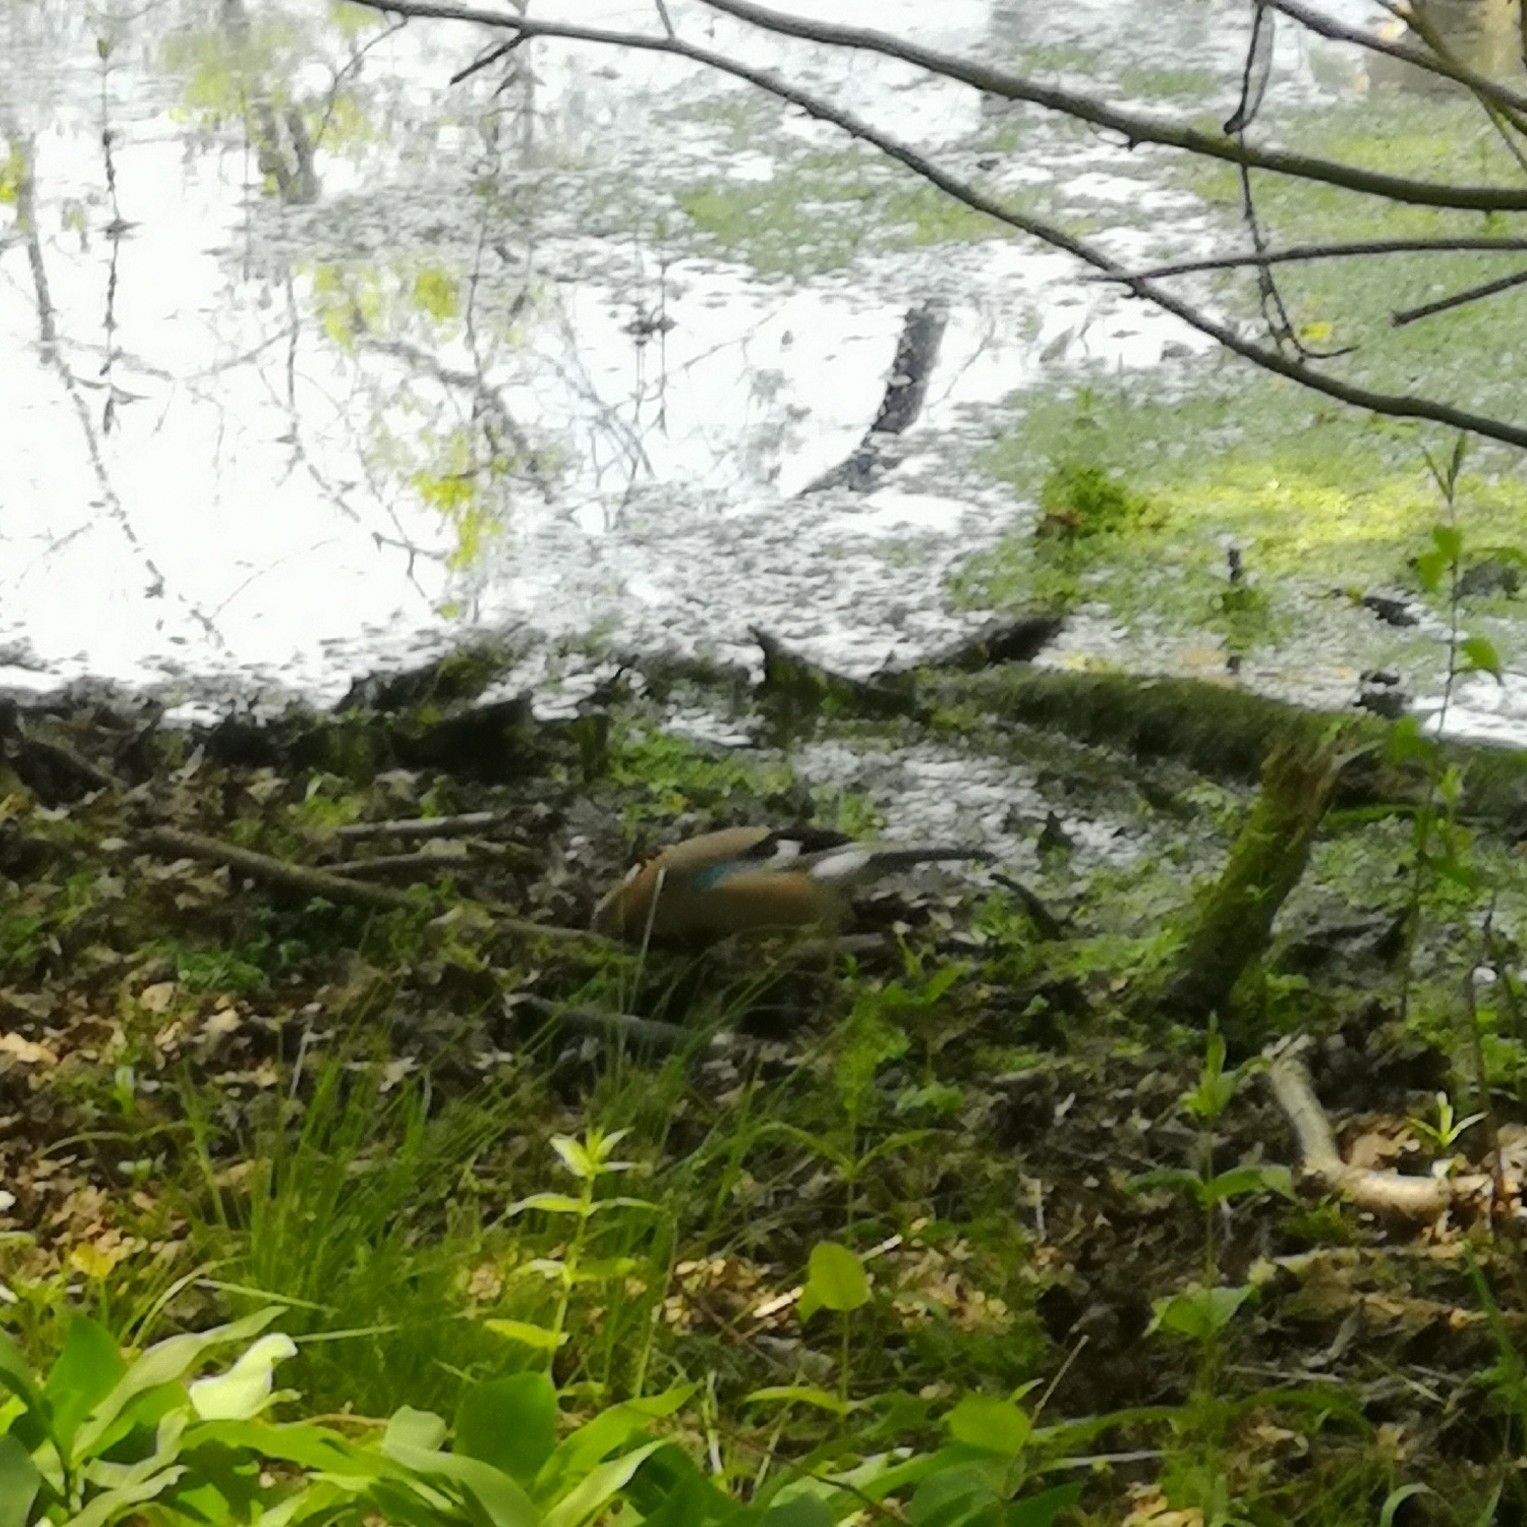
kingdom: Animalia
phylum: Chordata
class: Aves
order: Passeriformes
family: Corvidae
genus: Garrulus
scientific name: Garrulus glandarius
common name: Eurasian jay
